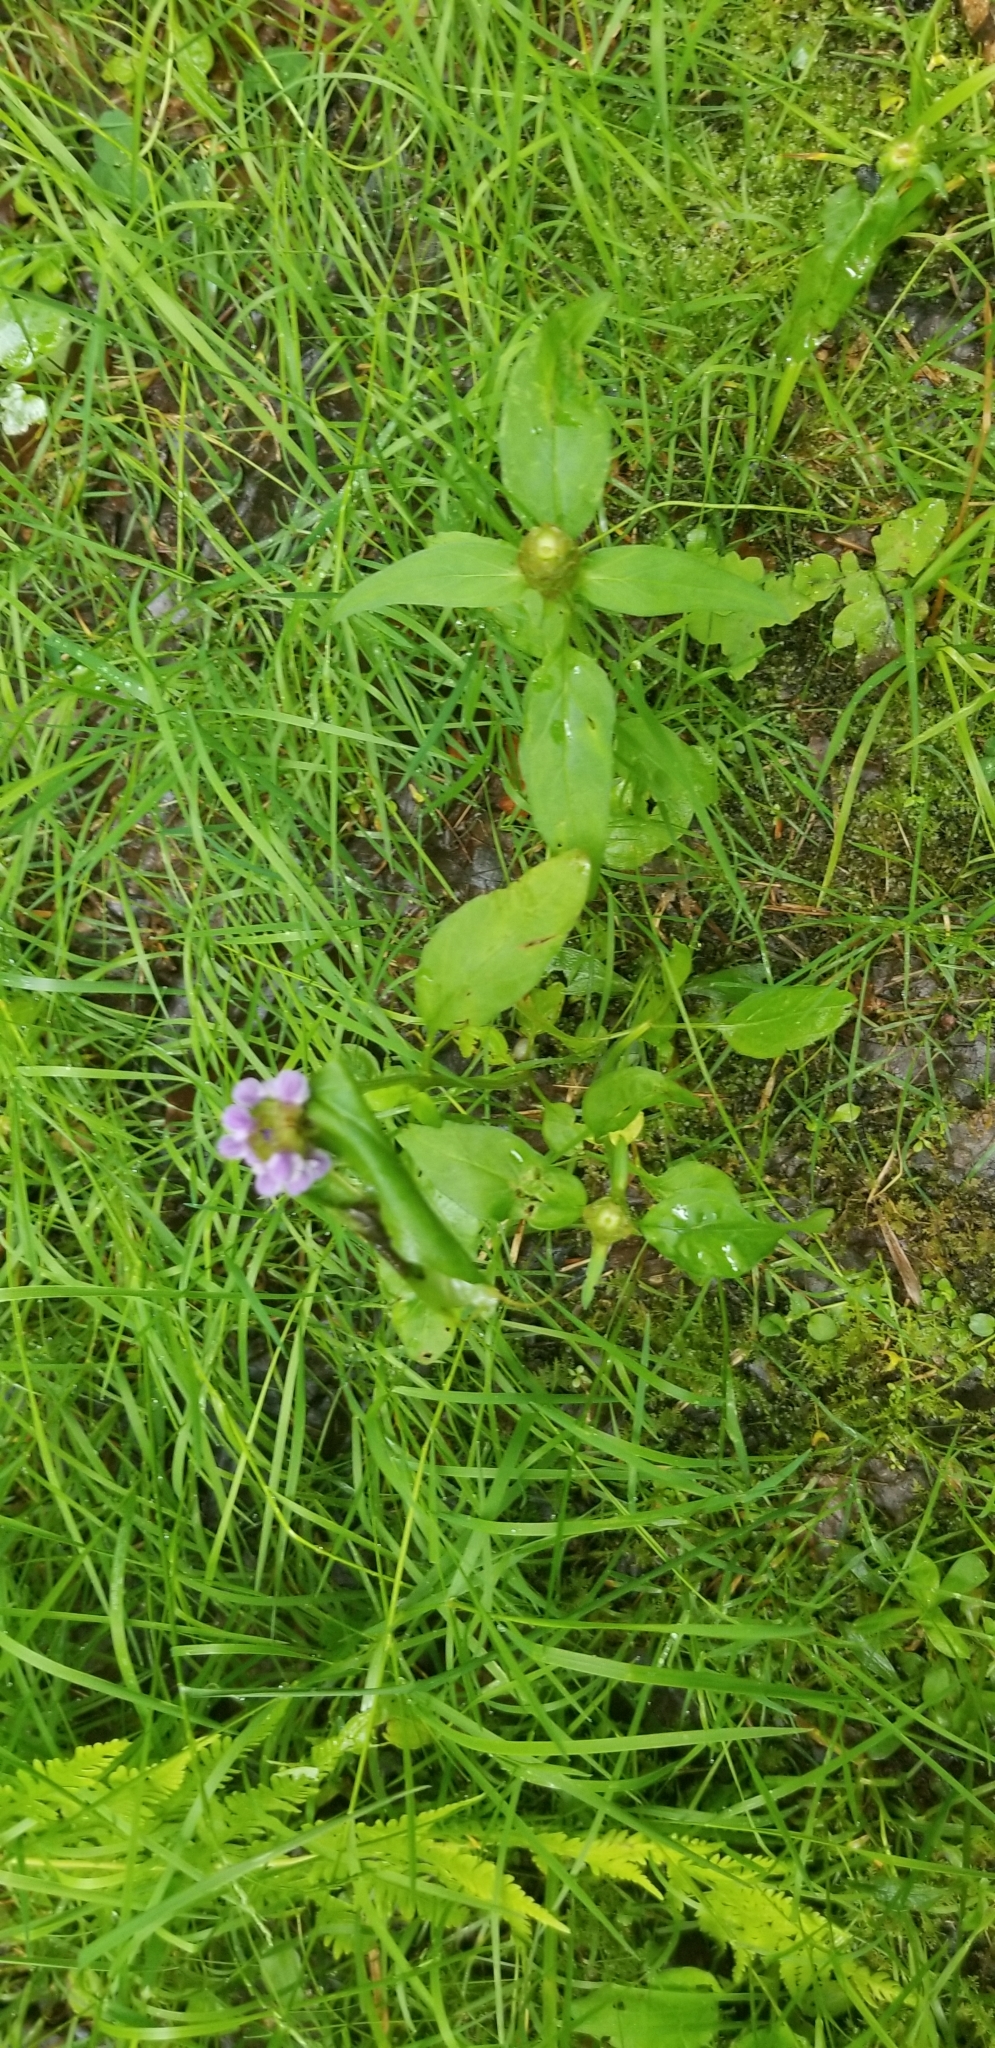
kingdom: Plantae
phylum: Tracheophyta
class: Magnoliopsida
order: Lamiales
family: Lamiaceae
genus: Prunella
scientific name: Prunella vulgaris
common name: Heal-all
